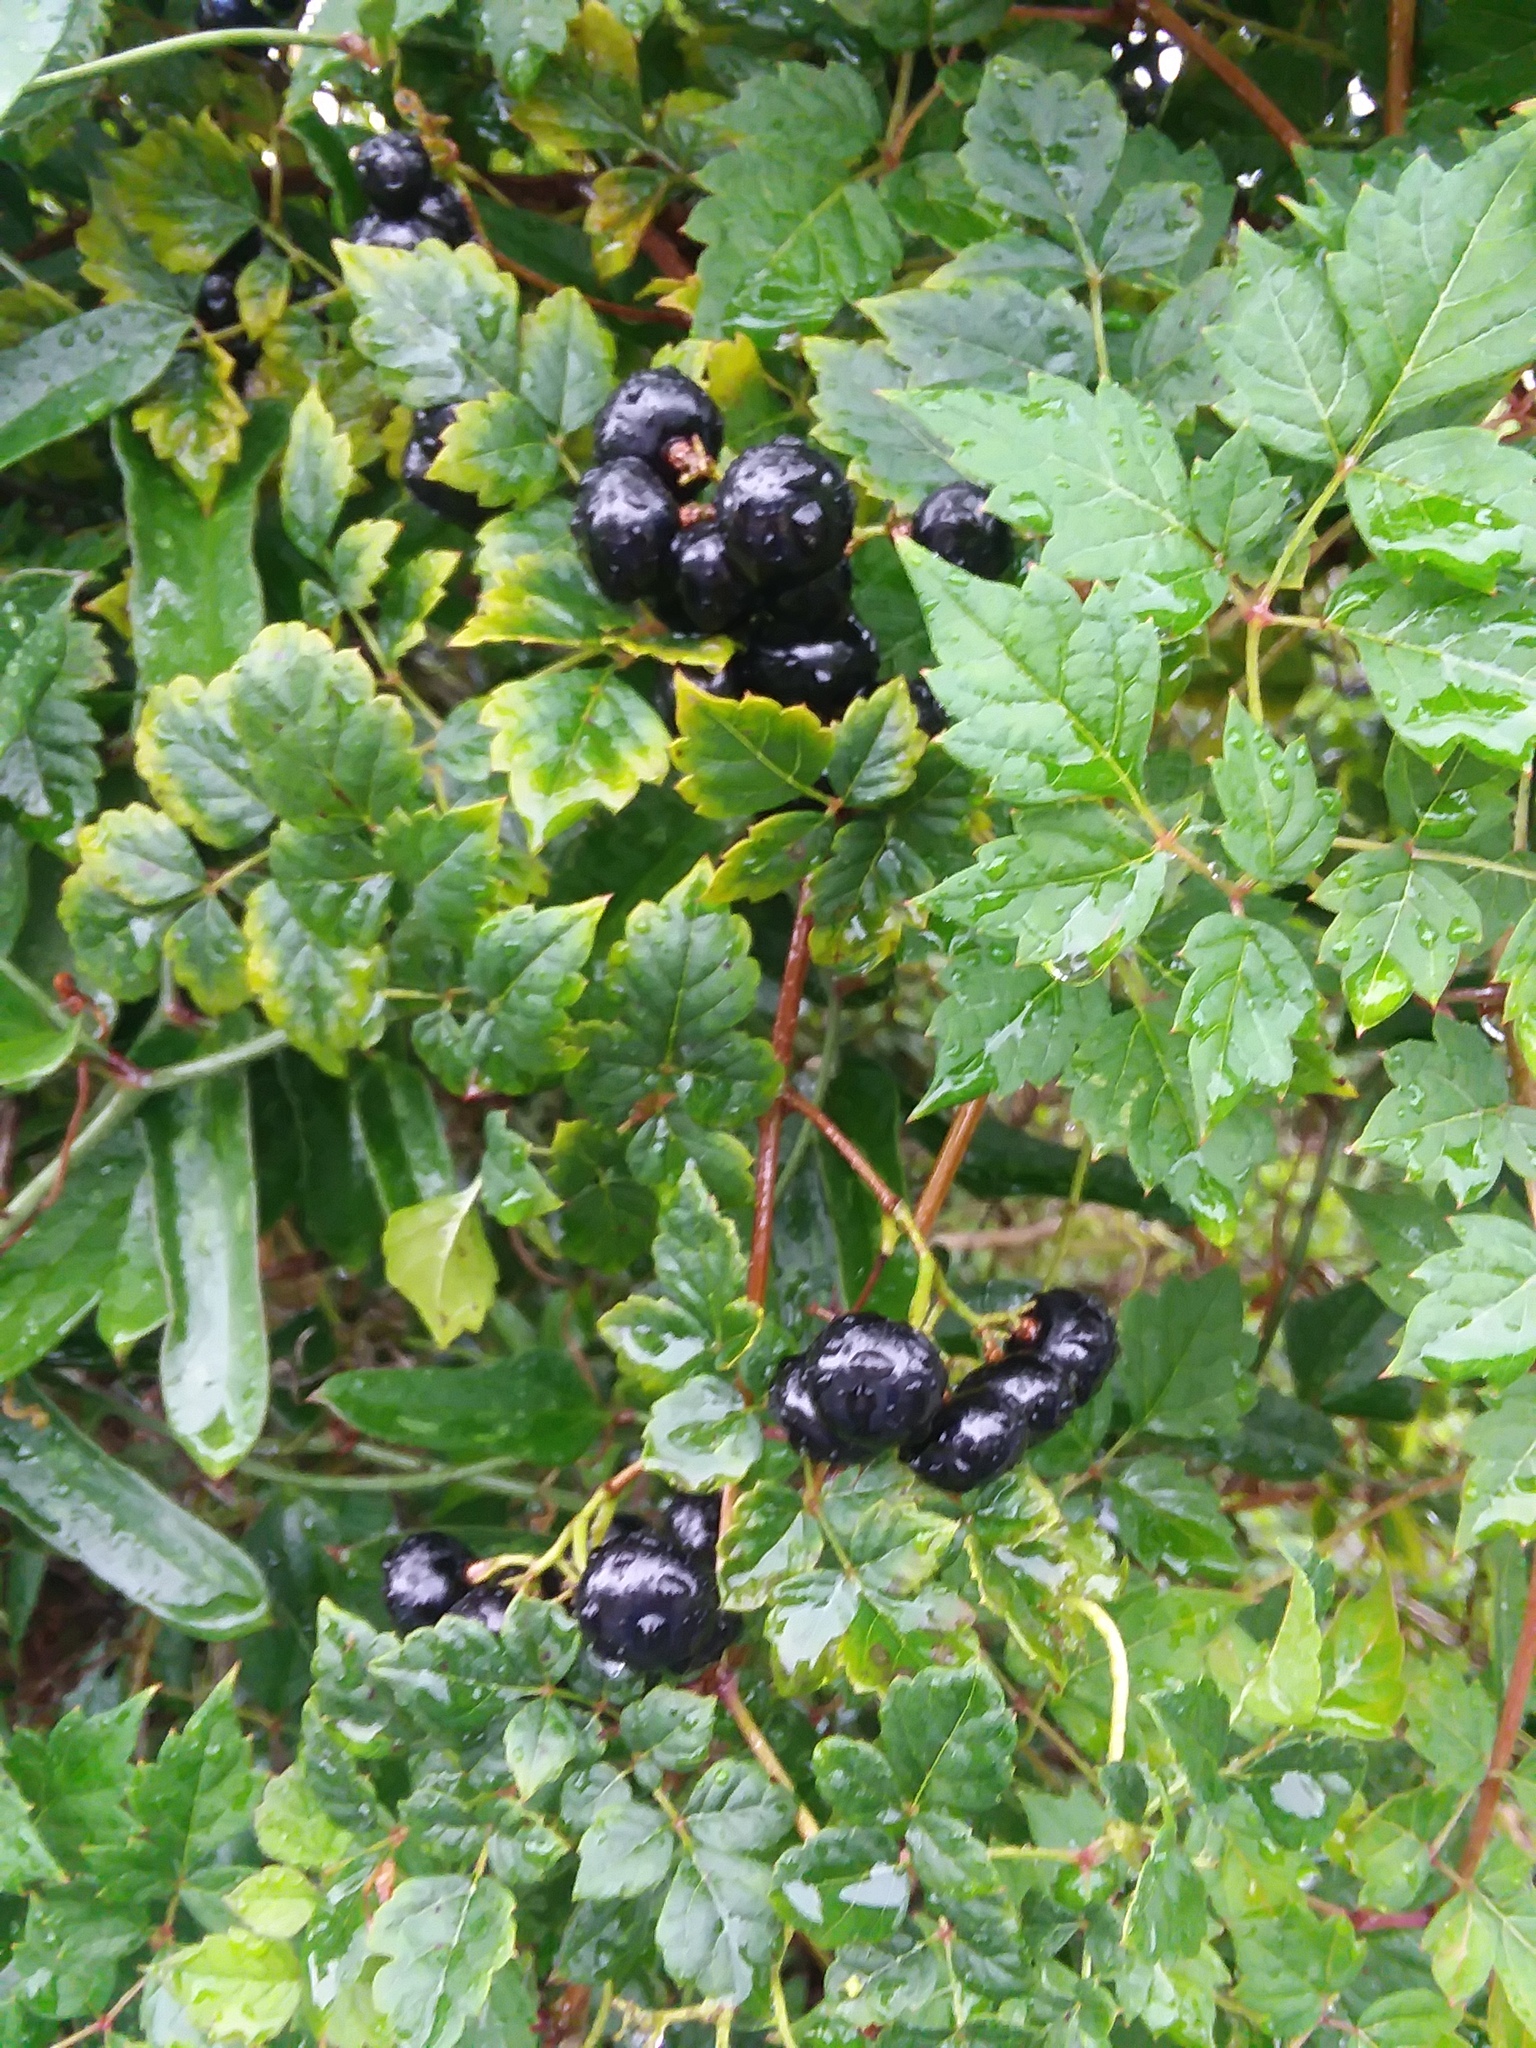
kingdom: Plantae
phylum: Tracheophyta
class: Magnoliopsida
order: Vitales
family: Vitaceae
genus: Nekemias
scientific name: Nekemias arborea
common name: Peppervine
